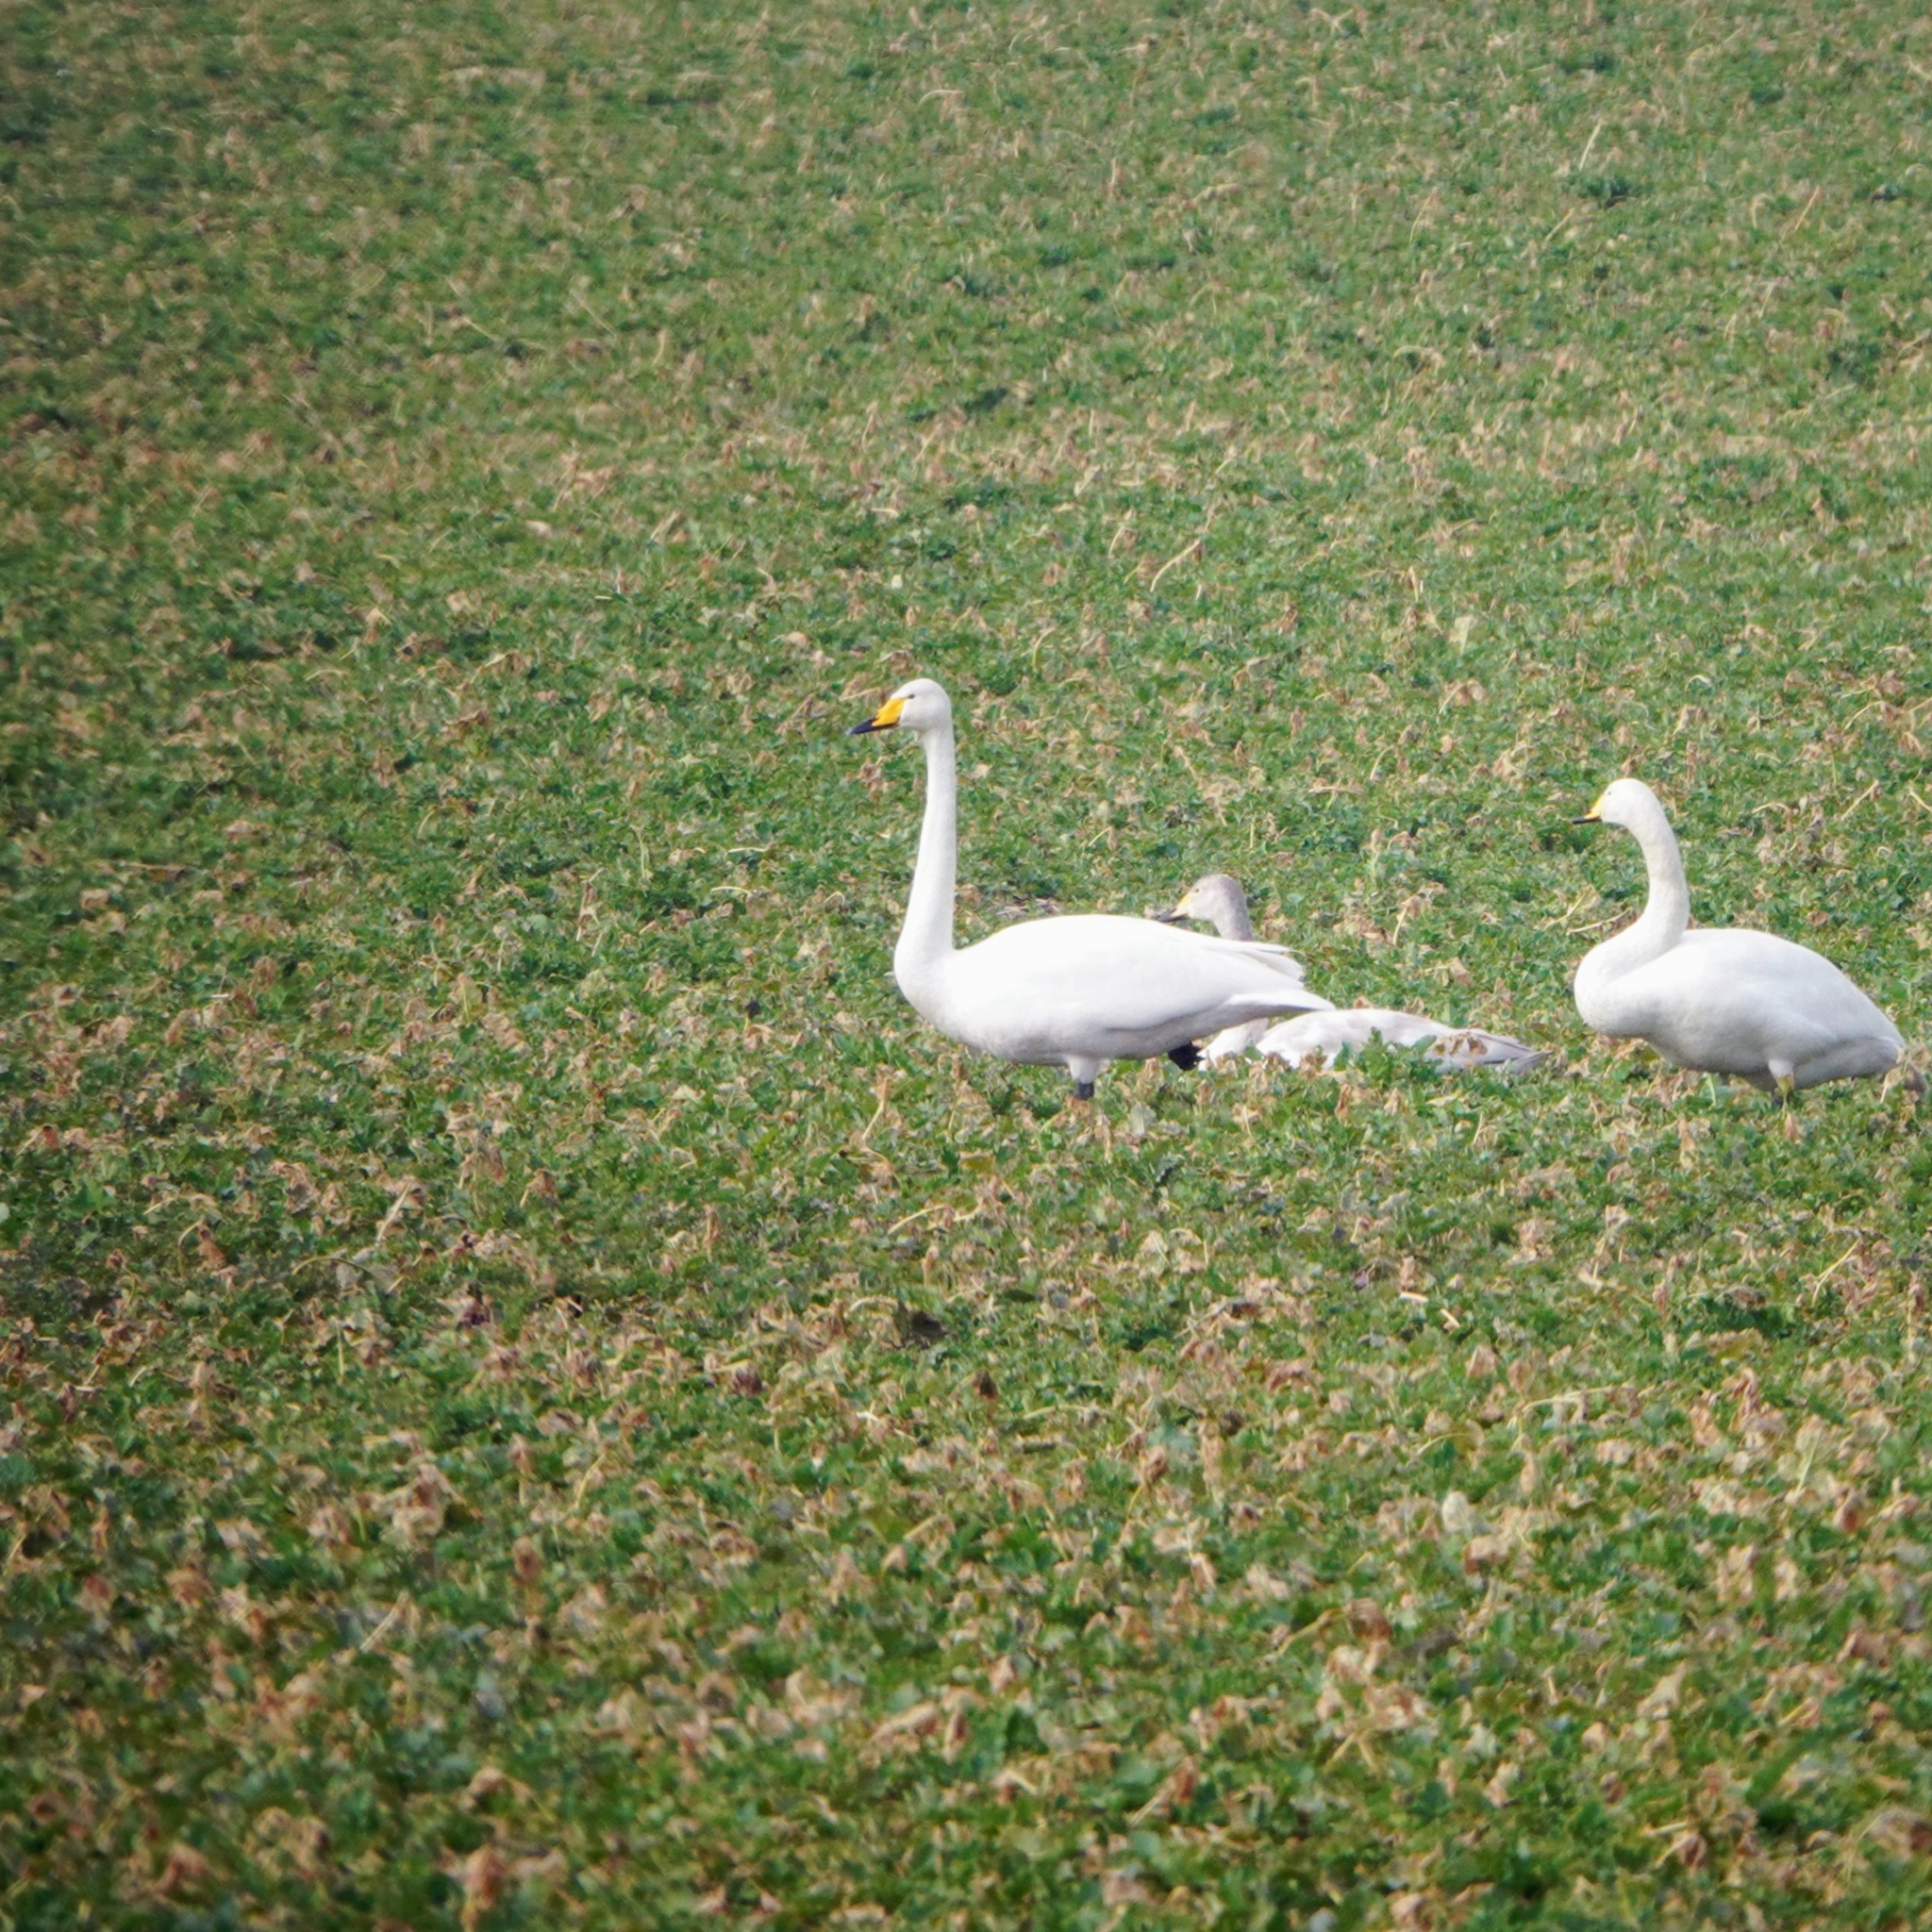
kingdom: Animalia
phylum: Chordata
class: Aves
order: Anseriformes
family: Anatidae
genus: Cygnus
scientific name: Cygnus cygnus
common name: Whooper swan
